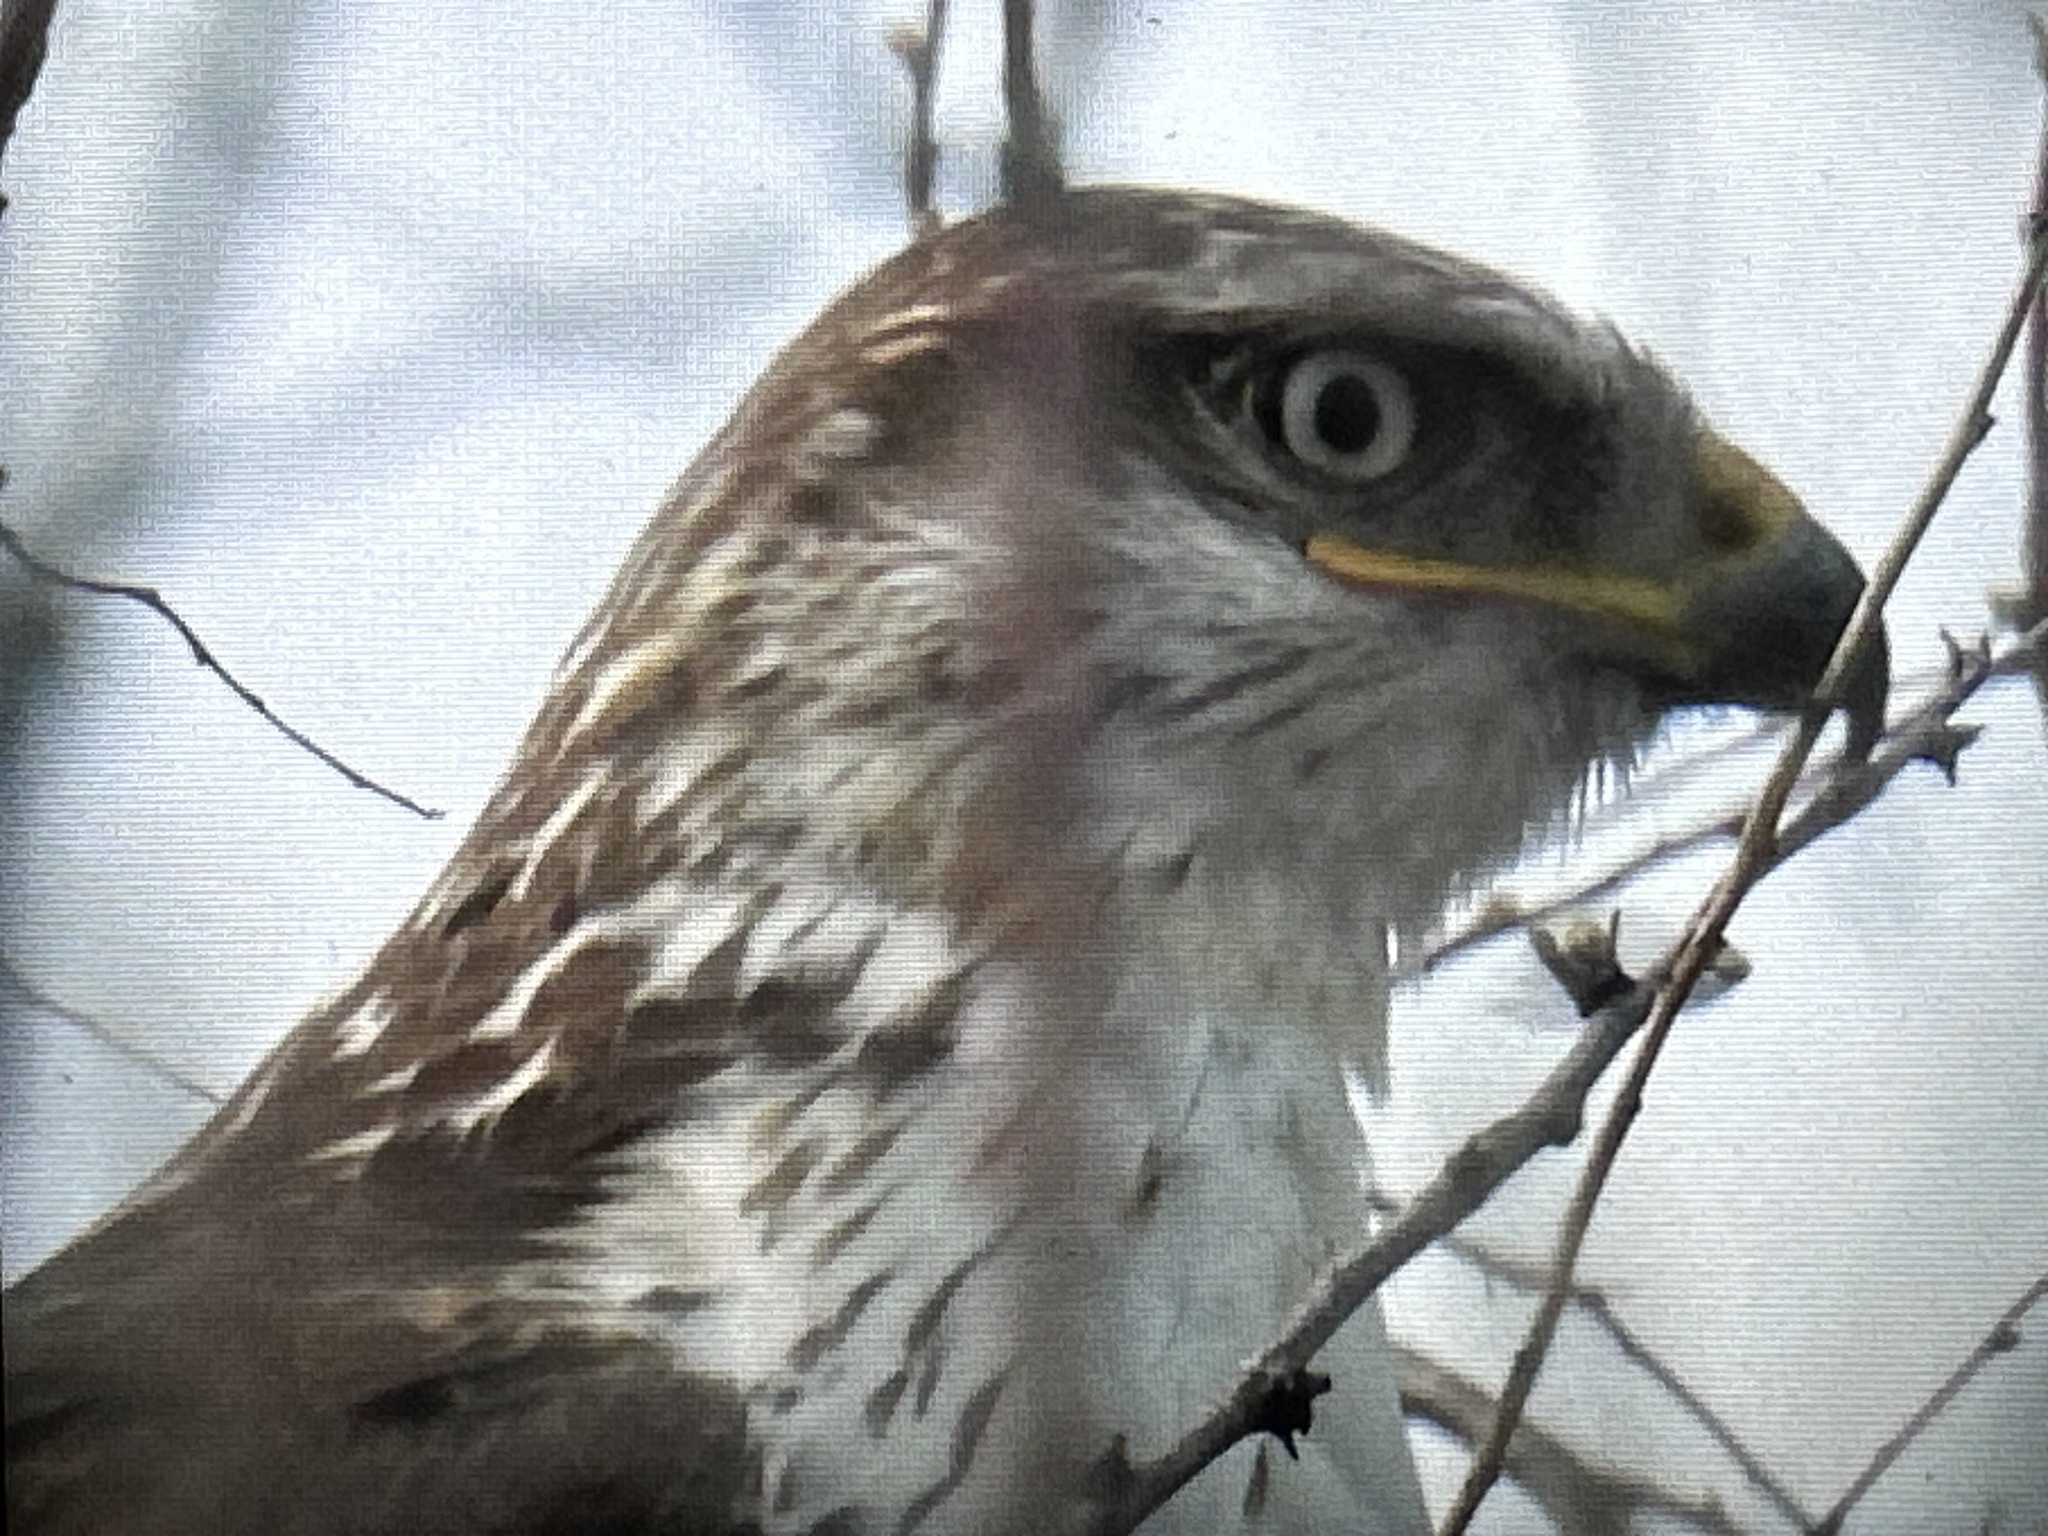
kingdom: Animalia
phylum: Chordata
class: Aves
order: Accipitriformes
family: Accipitridae
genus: Buteo
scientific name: Buteo regalis
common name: Ferruginous hawk
